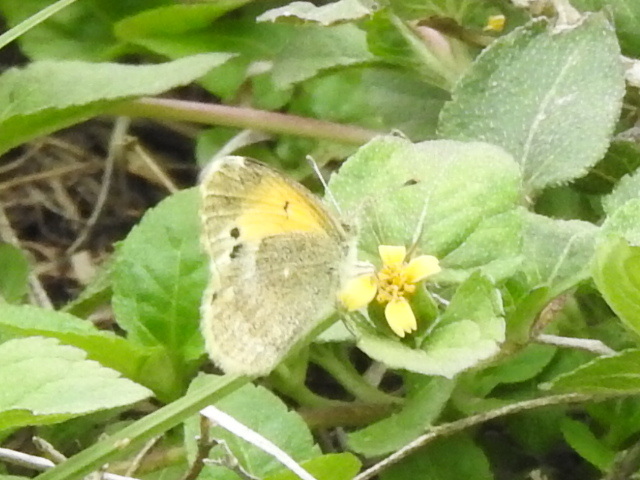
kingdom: Animalia
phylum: Arthropoda
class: Insecta
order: Lepidoptera
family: Pieridae
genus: Nathalis
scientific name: Nathalis iole
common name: Dainty sulphur
